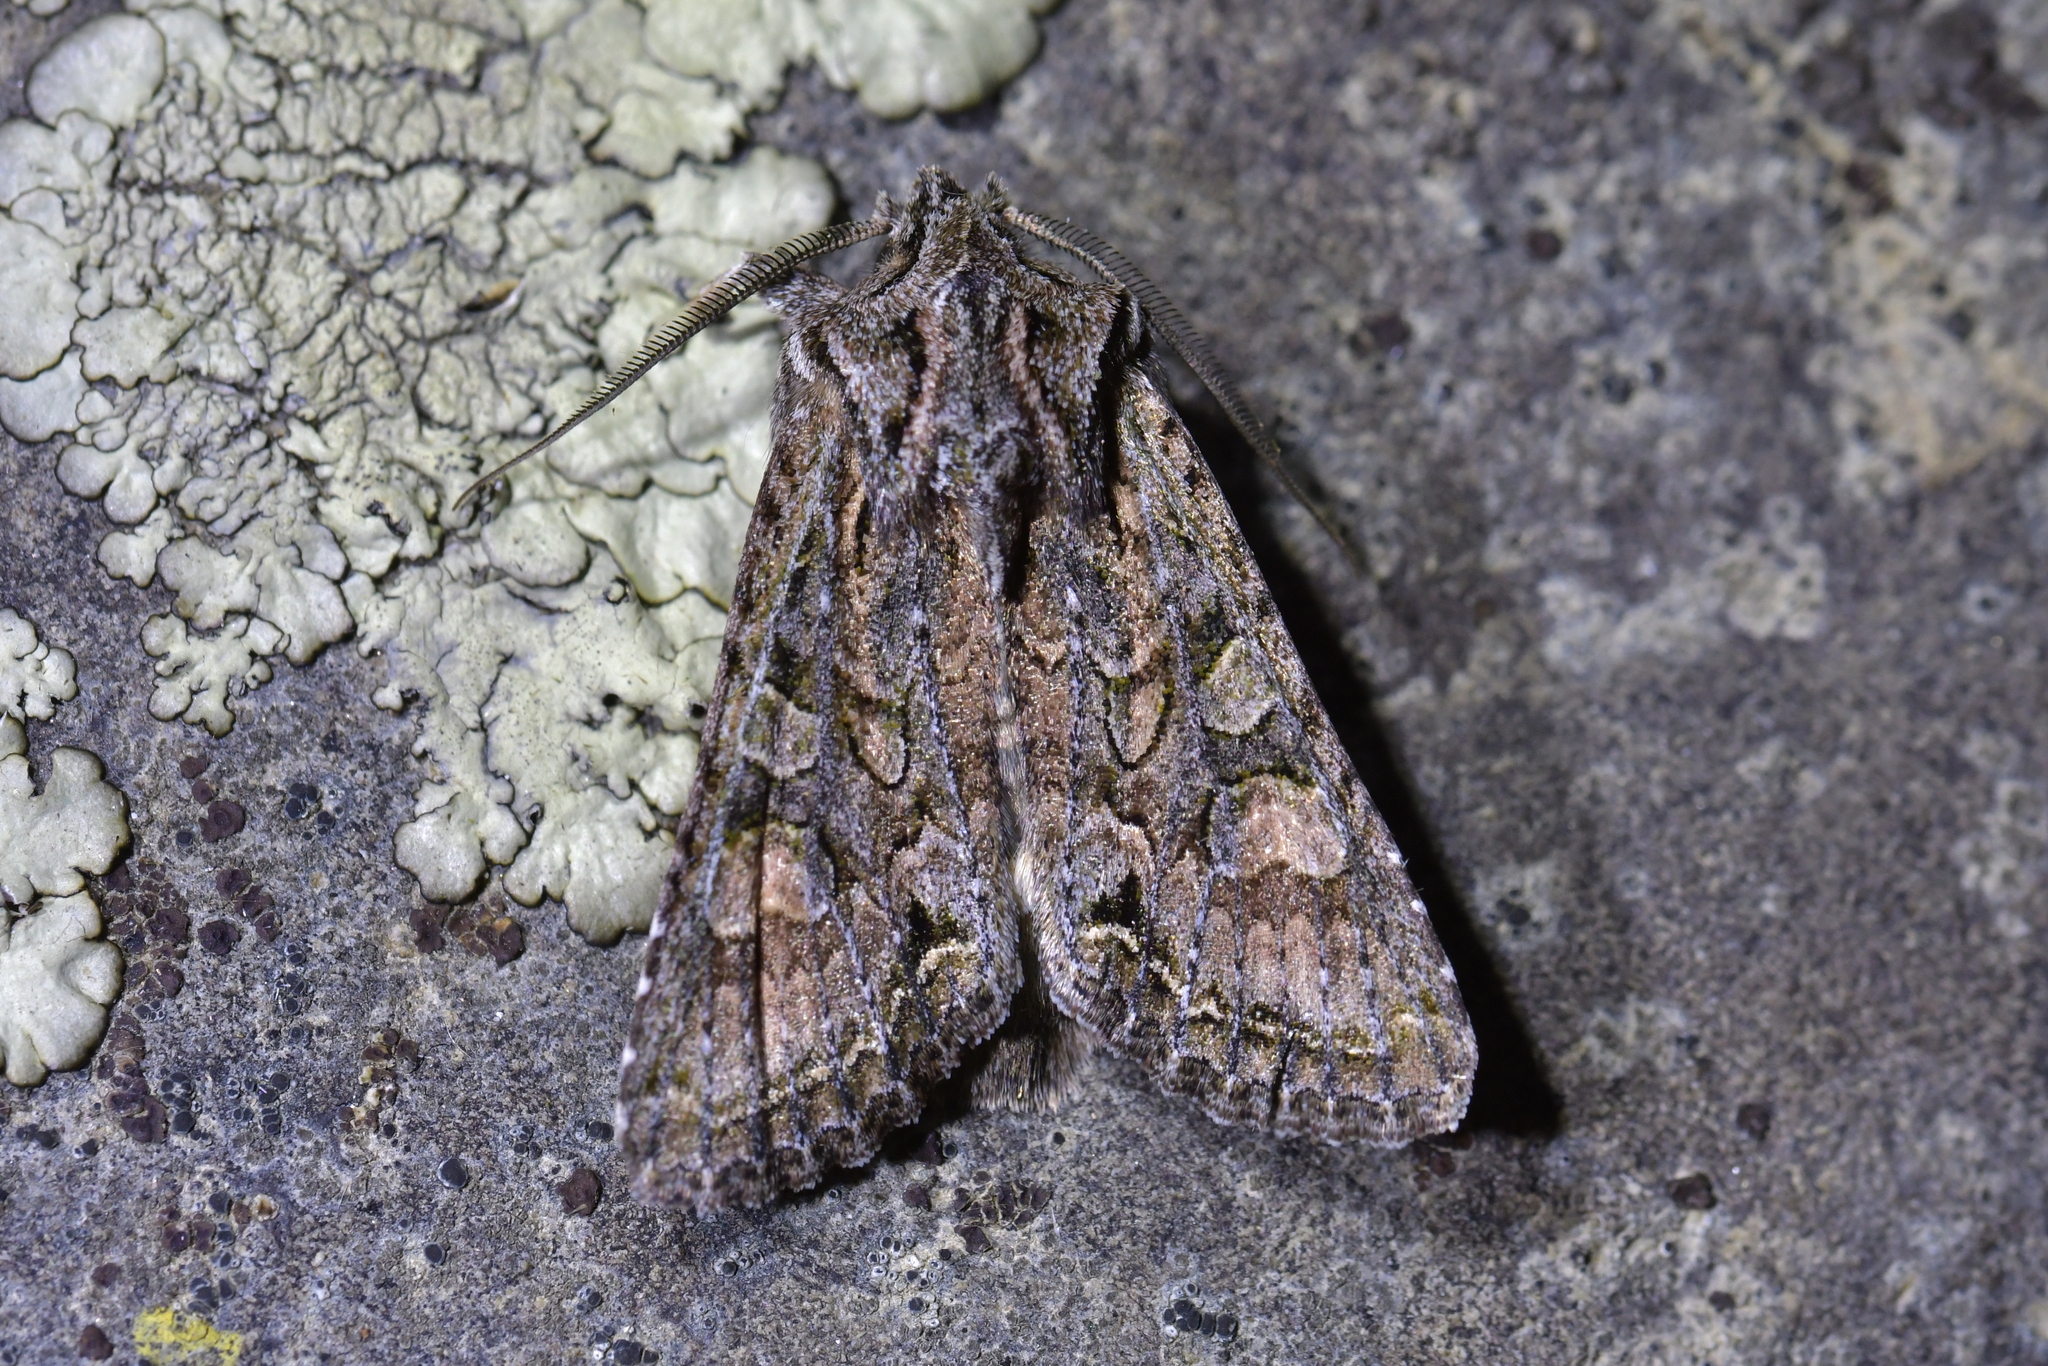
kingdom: Animalia
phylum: Arthropoda
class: Insecta
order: Lepidoptera
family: Noctuidae
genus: Ichneutica
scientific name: Ichneutica mutans
